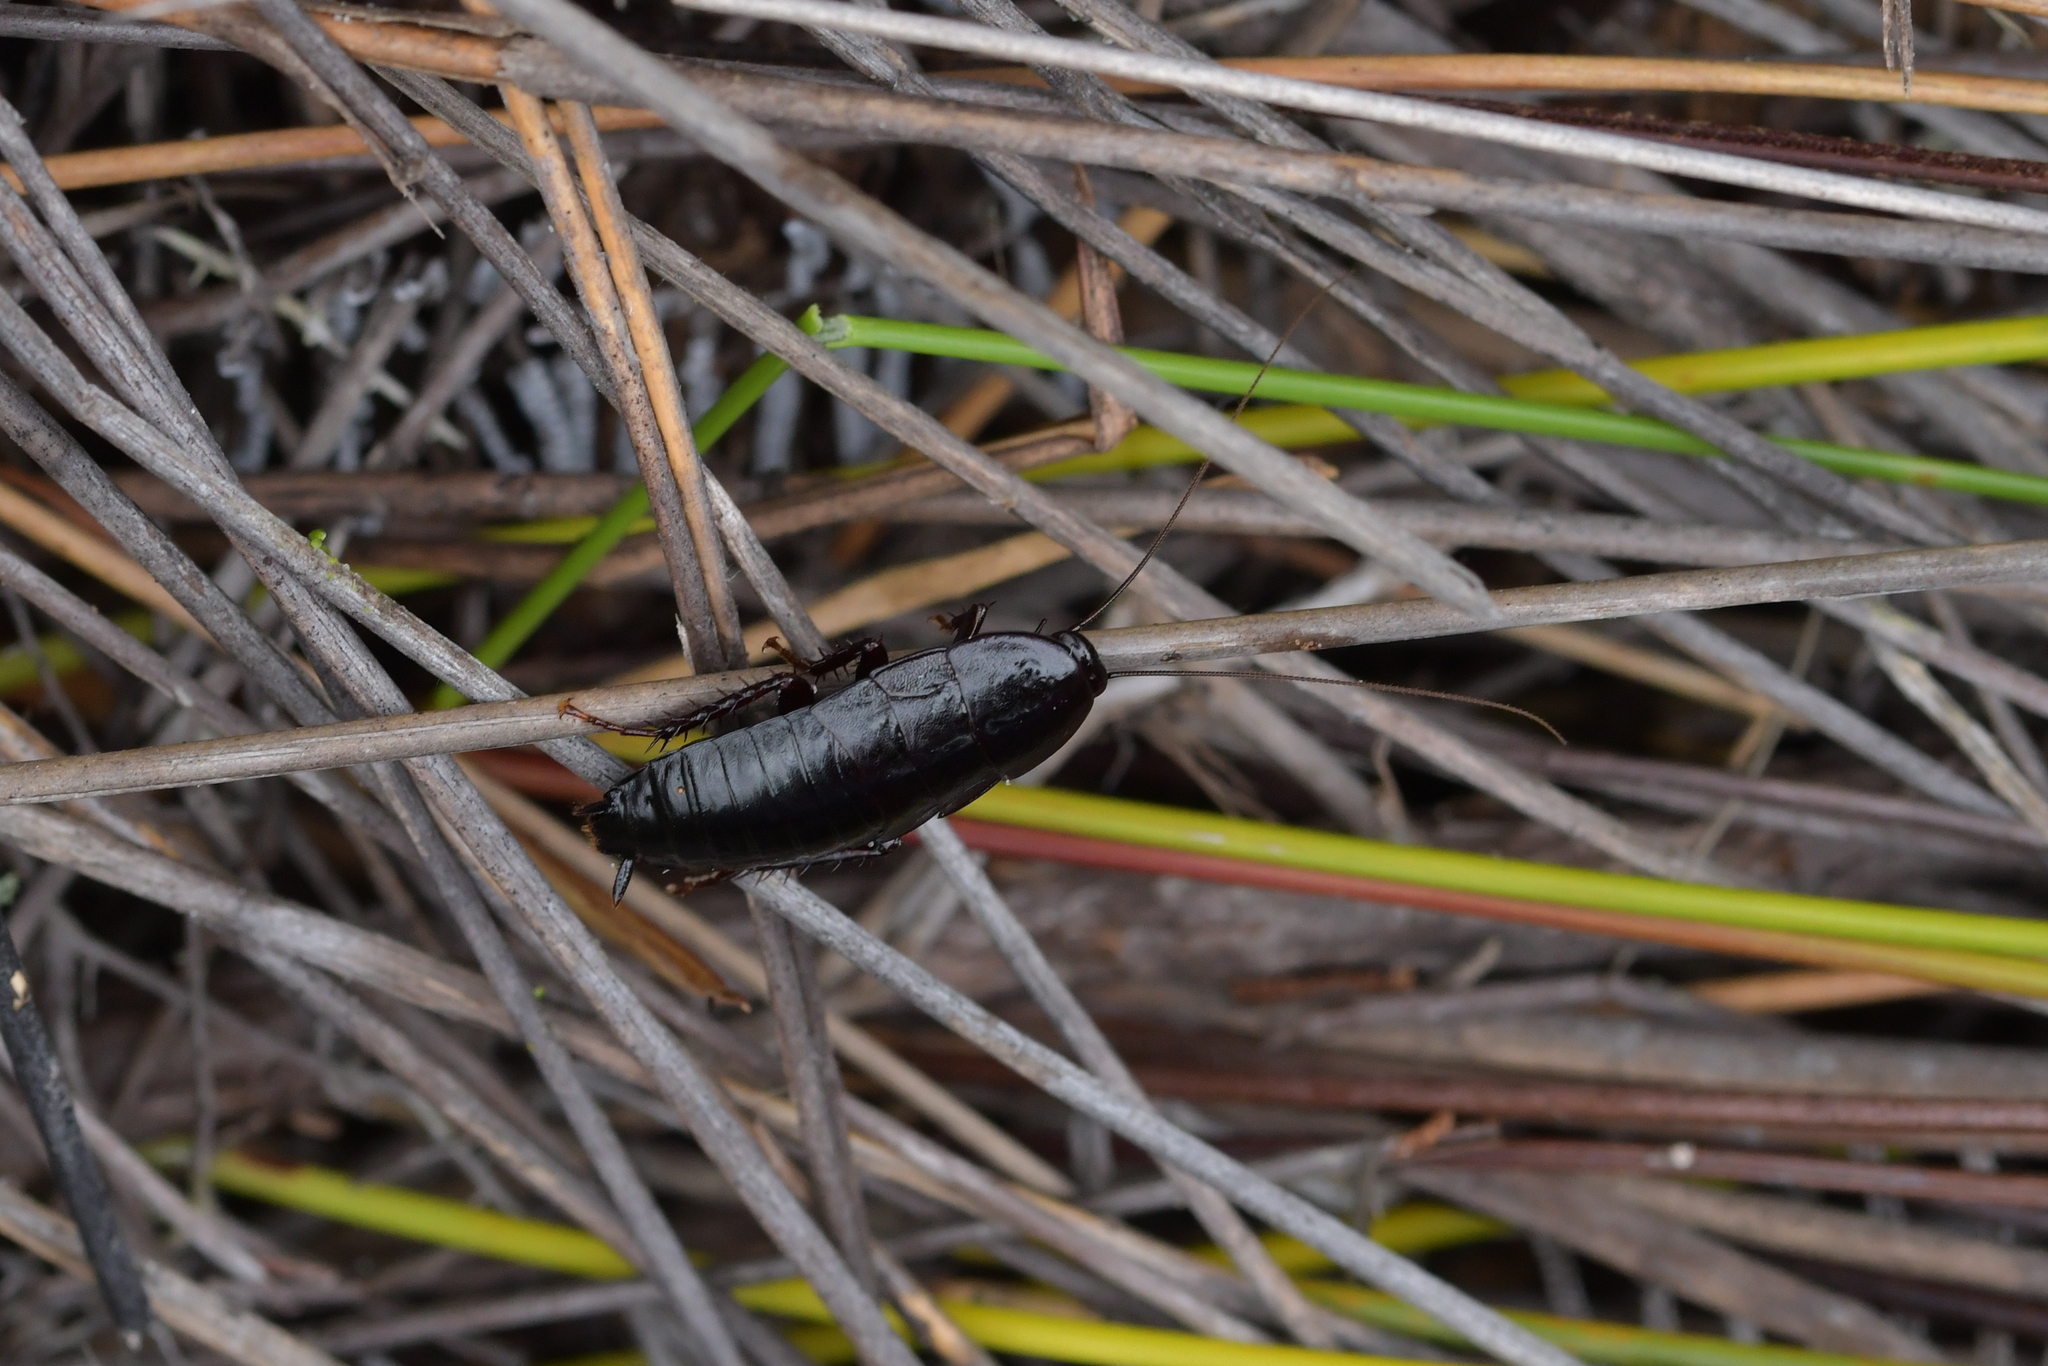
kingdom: Animalia
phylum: Arthropoda
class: Insecta
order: Blattodea
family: Blattidae
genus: Maoriblatta
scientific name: Maoriblatta novaeseelandiae
